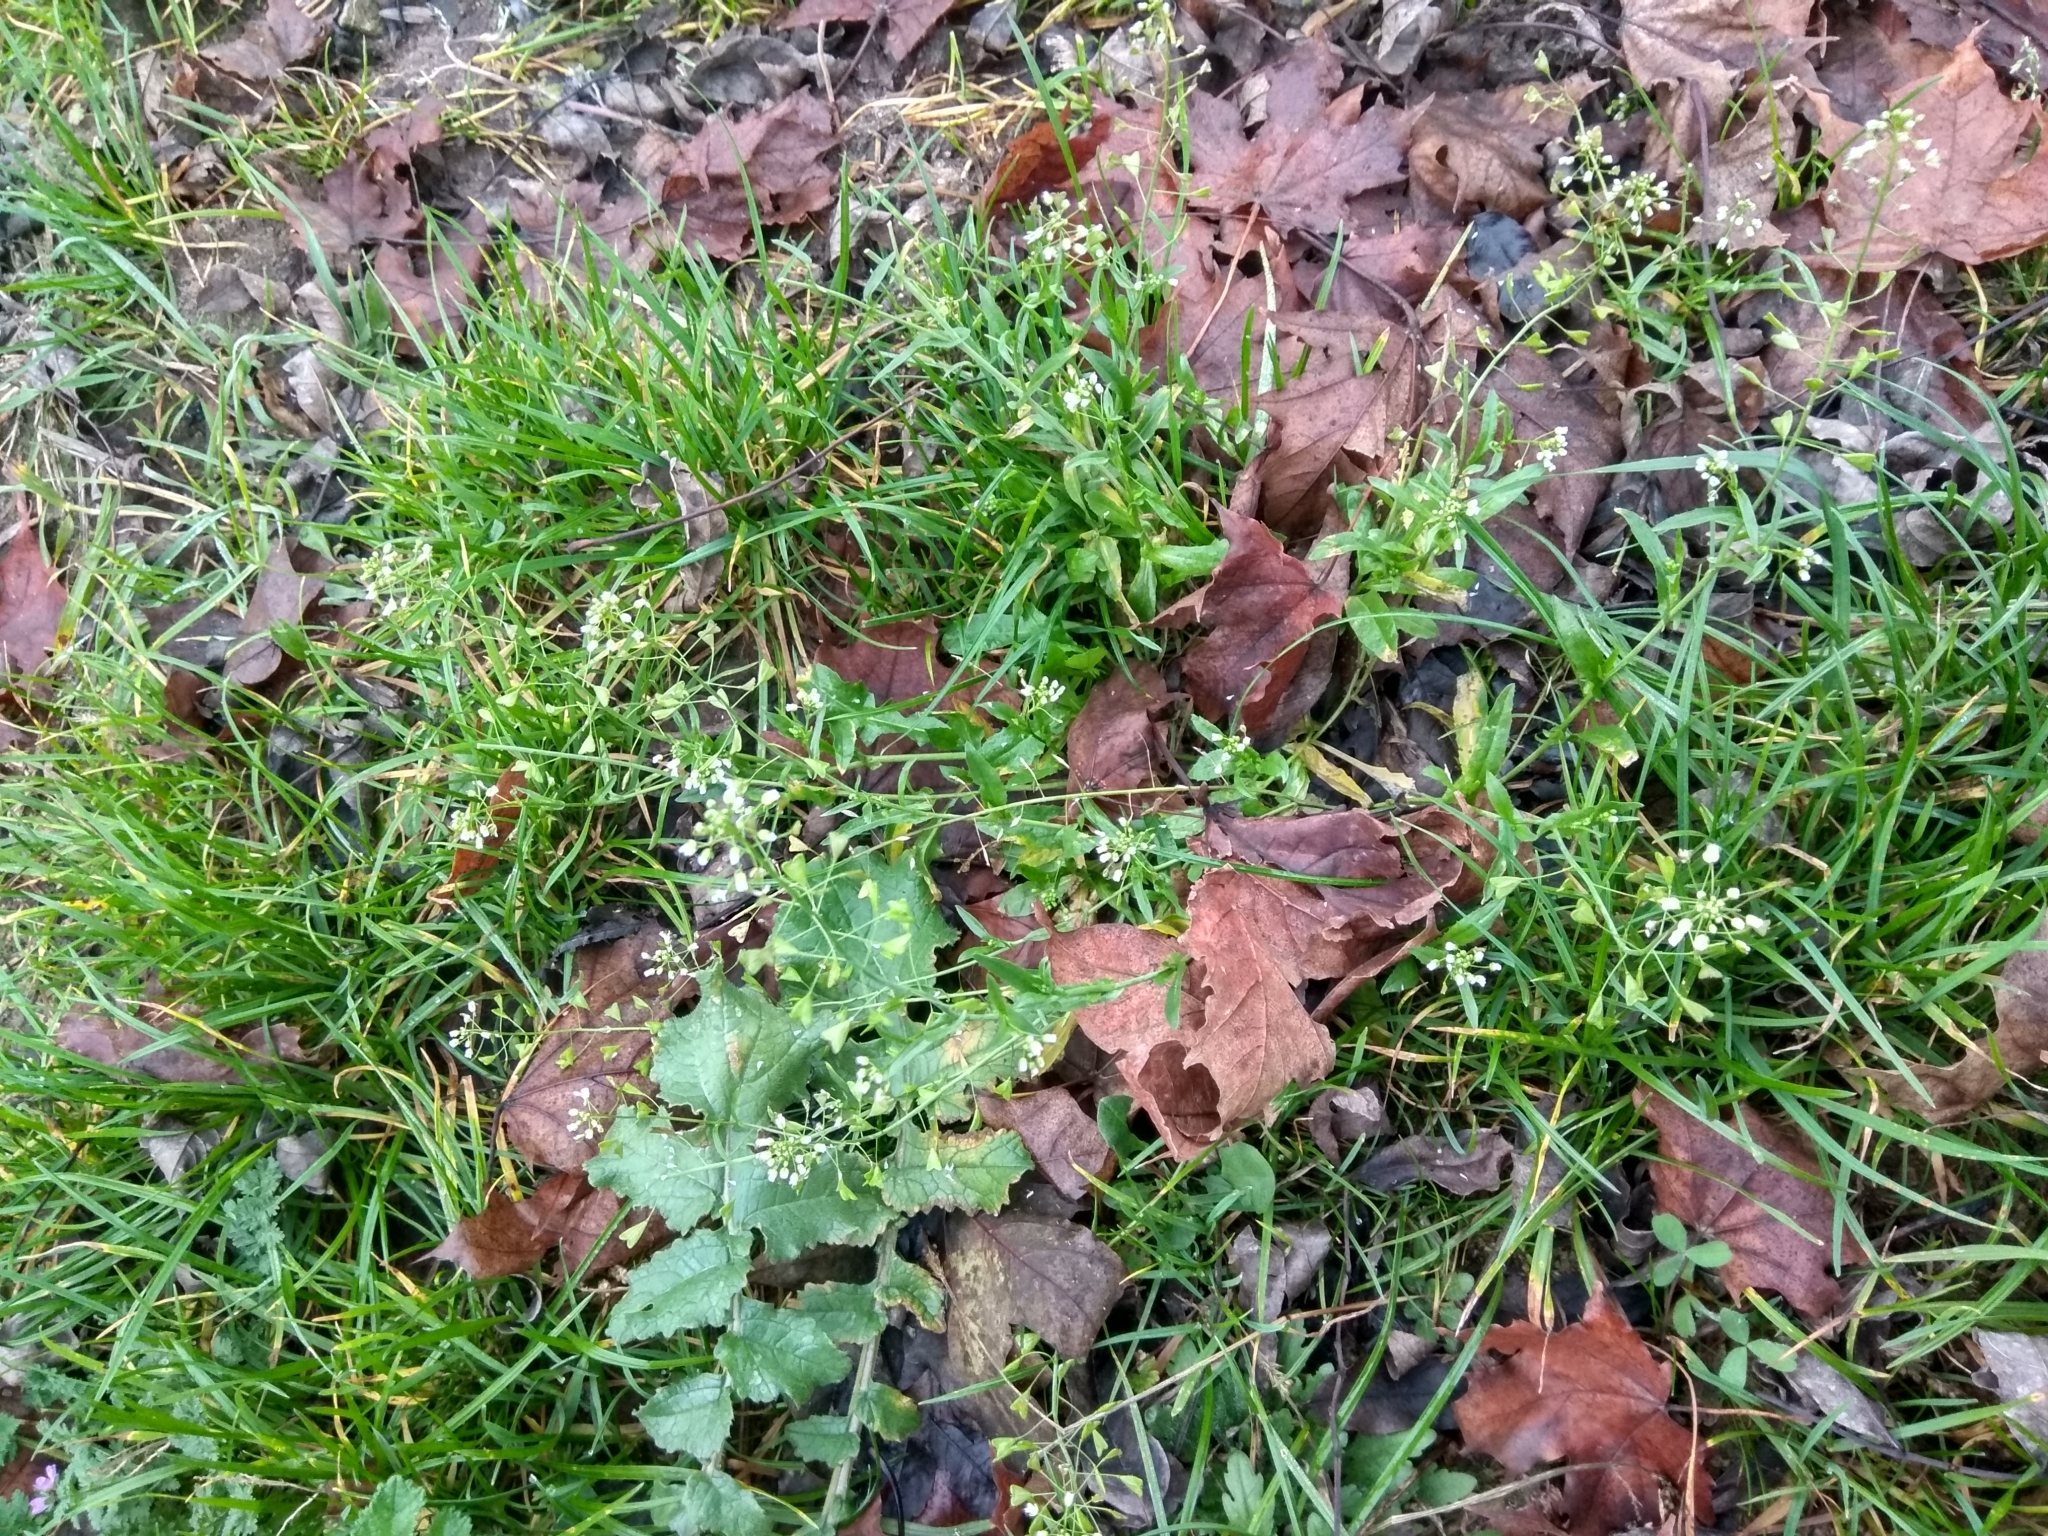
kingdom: Plantae
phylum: Tracheophyta
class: Magnoliopsida
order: Brassicales
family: Brassicaceae
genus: Capsella
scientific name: Capsella bursa-pastoris
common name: Shepherd's purse
